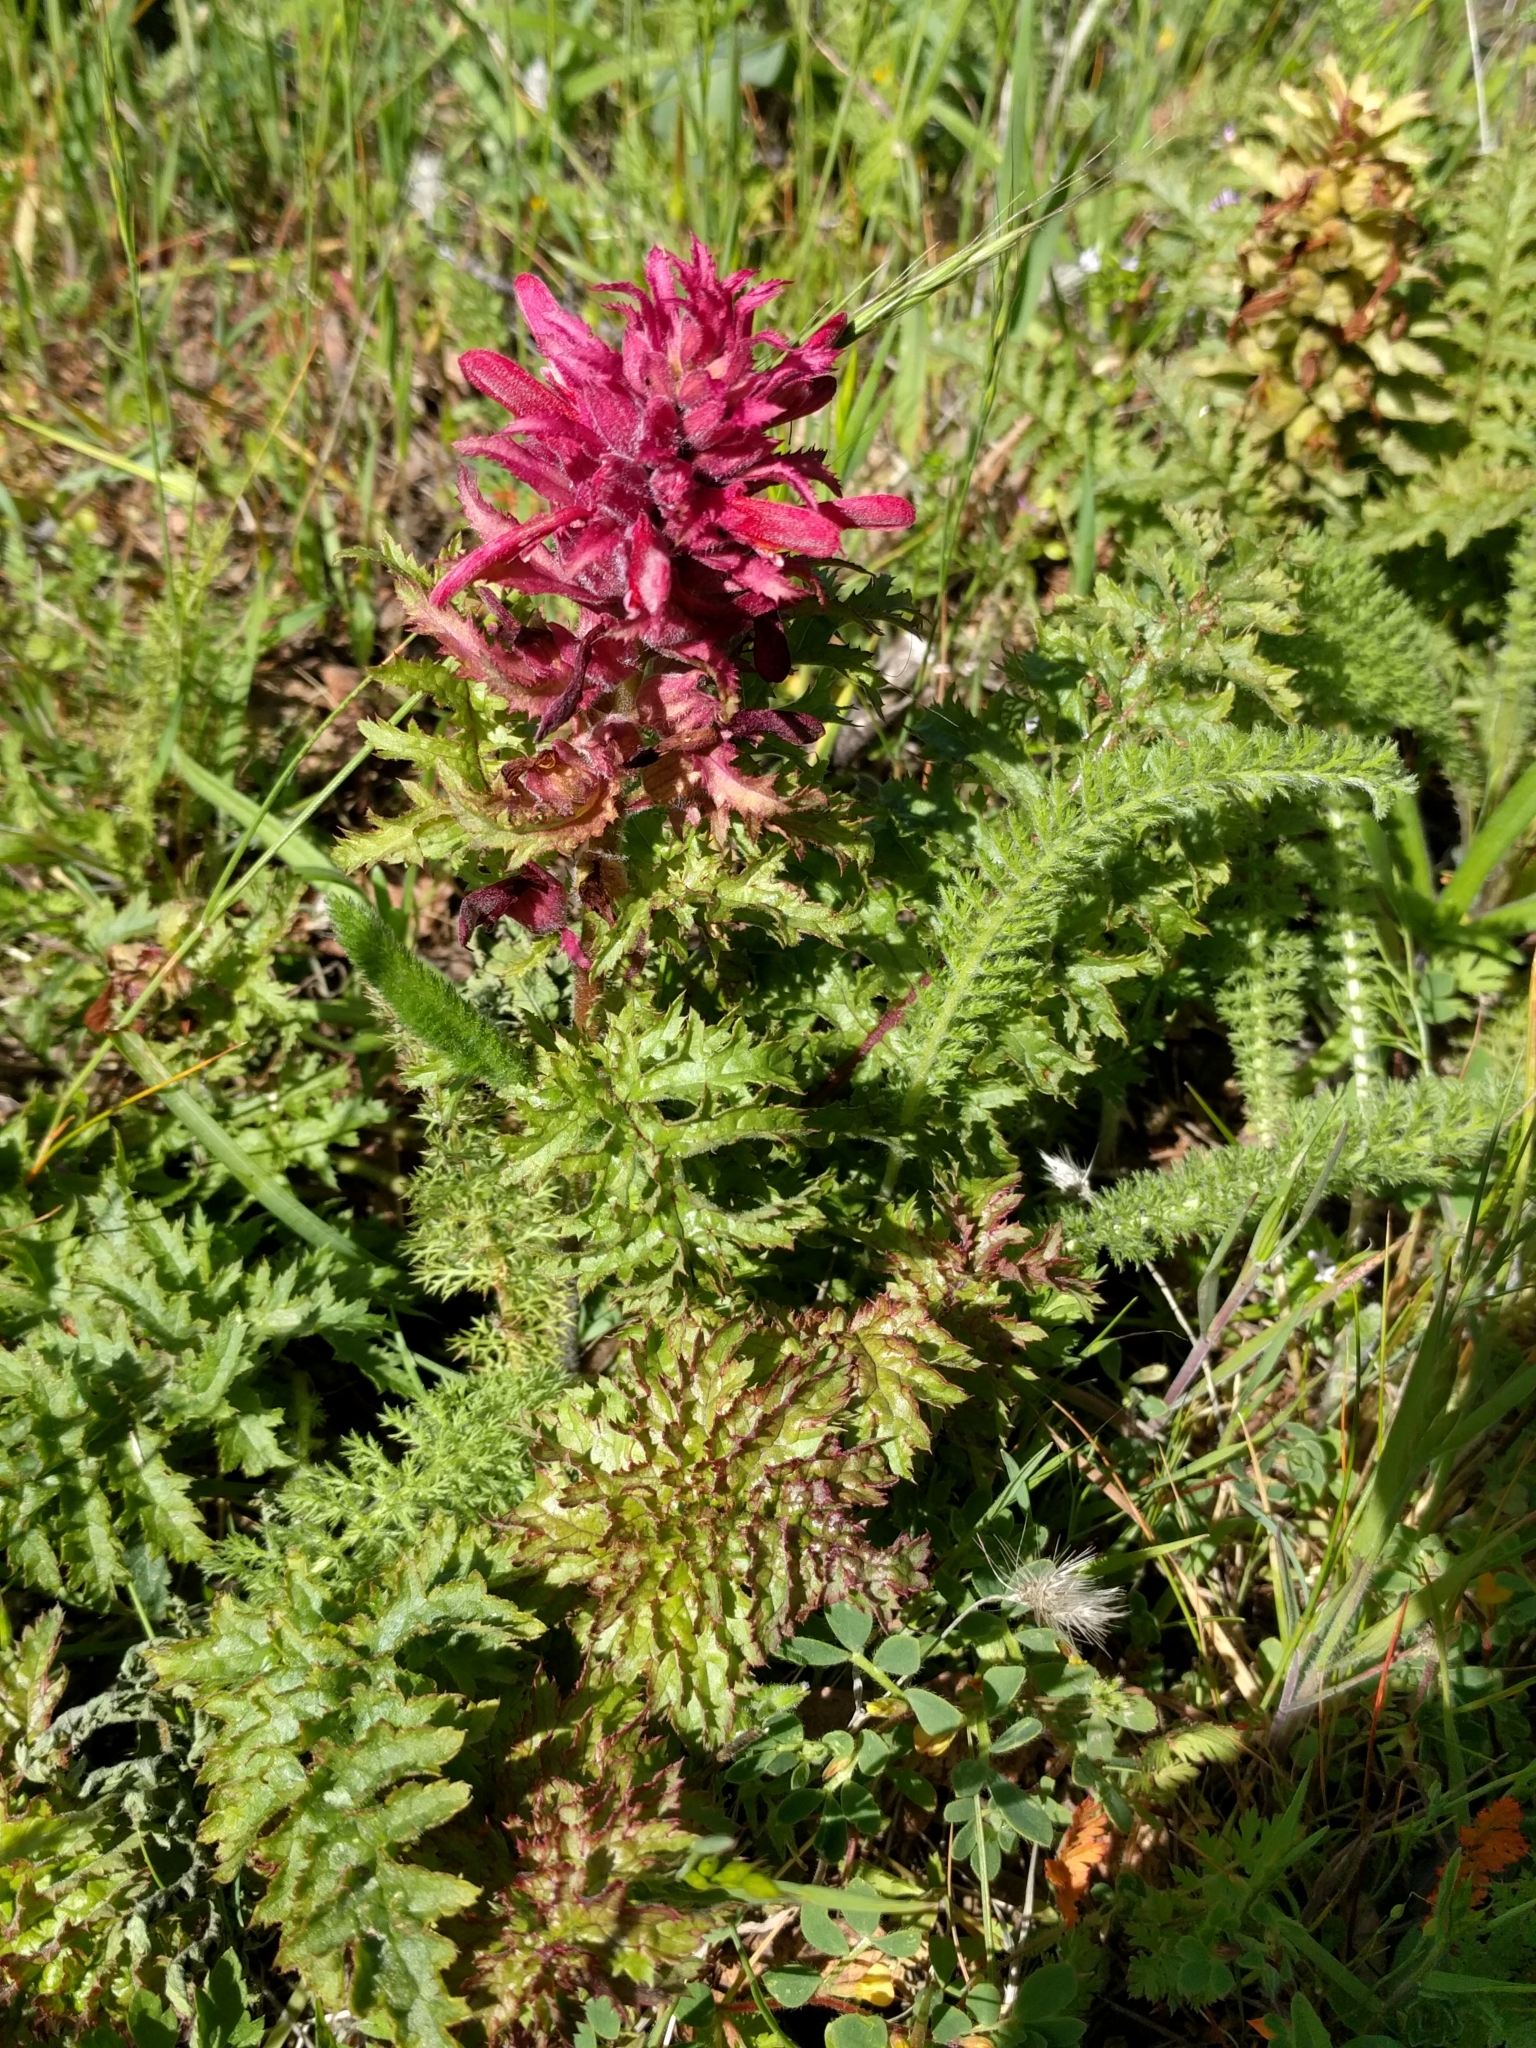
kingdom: Plantae
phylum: Tracheophyta
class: Magnoliopsida
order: Lamiales
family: Orobanchaceae
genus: Pedicularis
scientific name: Pedicularis densiflora
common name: Indian warrior
